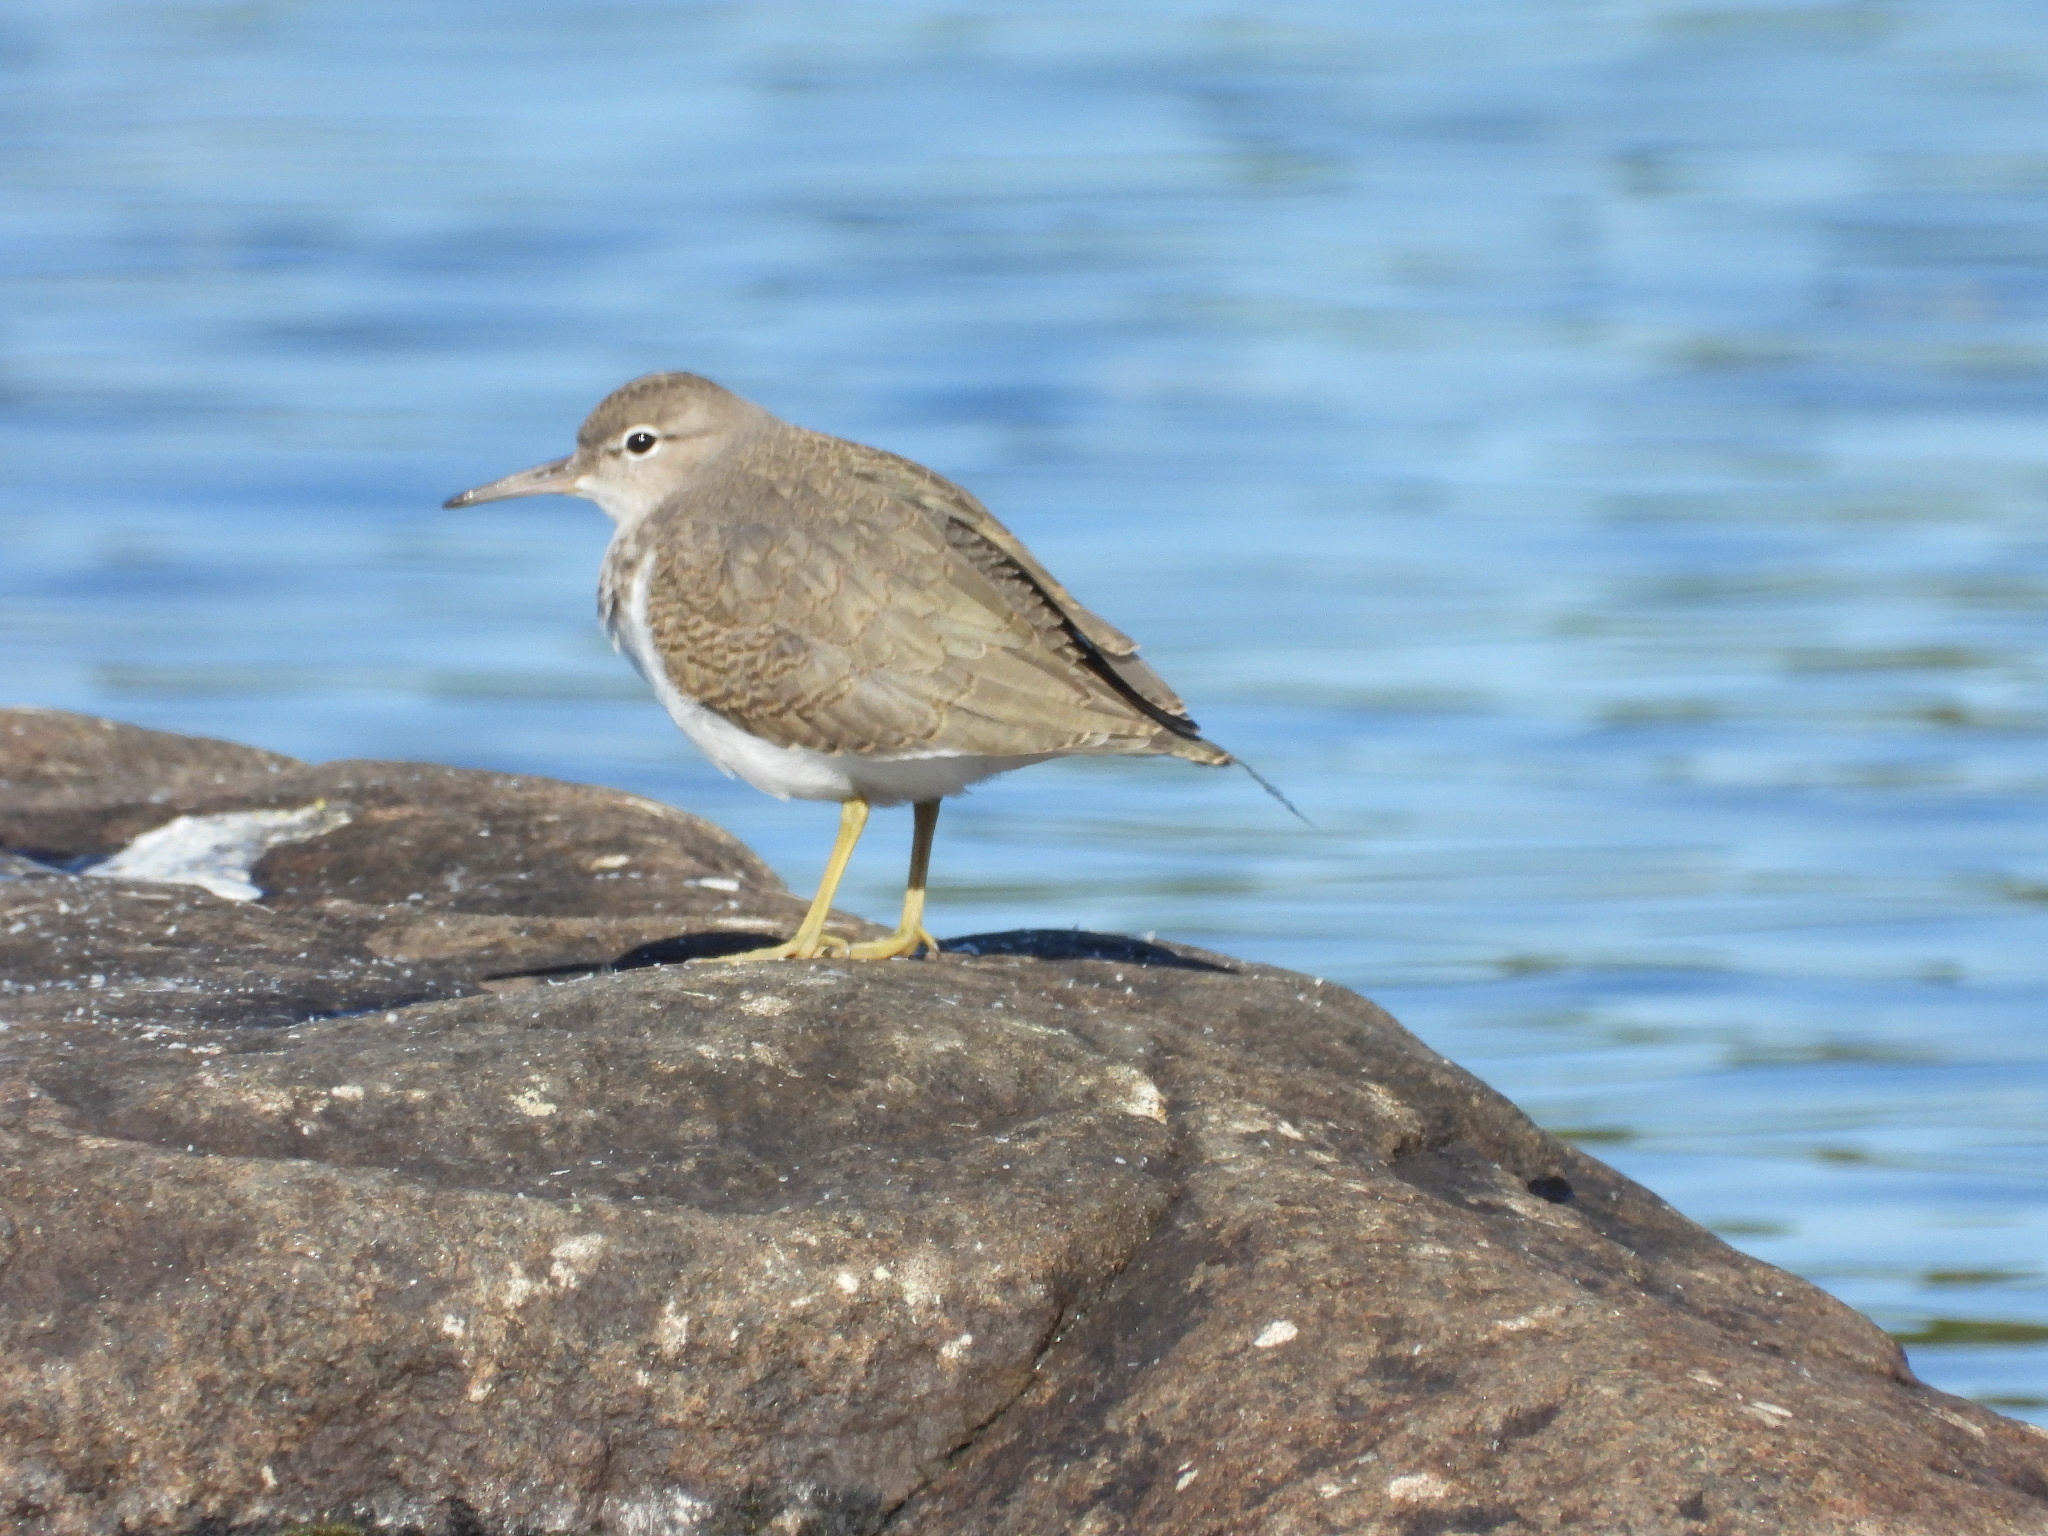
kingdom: Animalia
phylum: Chordata
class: Aves
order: Charadriiformes
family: Scolopacidae
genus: Actitis
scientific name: Actitis macularius
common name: Spotted sandpiper
